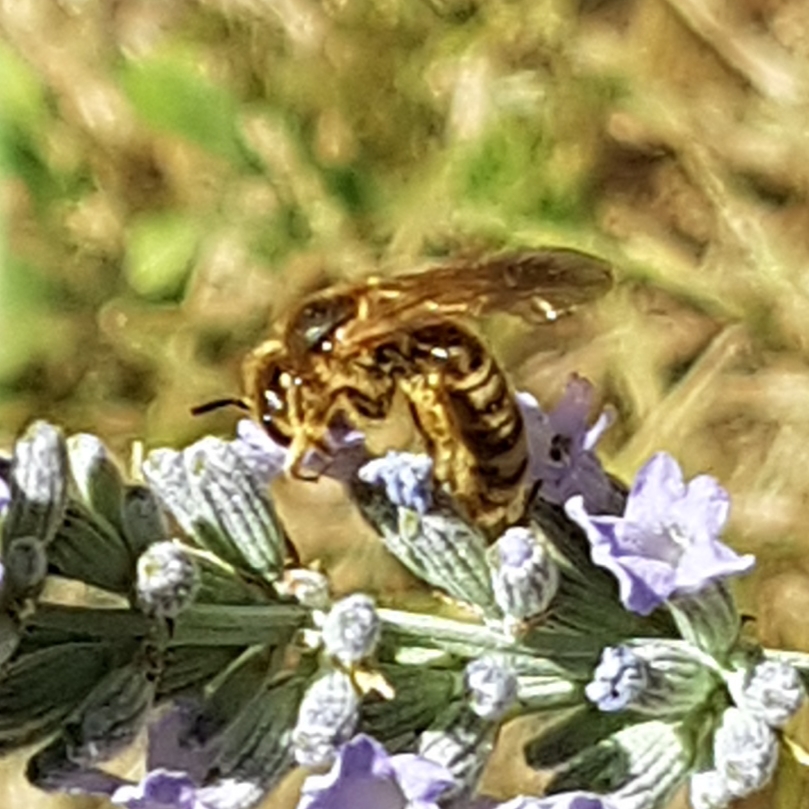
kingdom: Animalia
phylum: Arthropoda
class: Insecta
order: Hymenoptera
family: Halictidae
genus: Halictus
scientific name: Halictus scabiosae
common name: Great banded furrow bee
